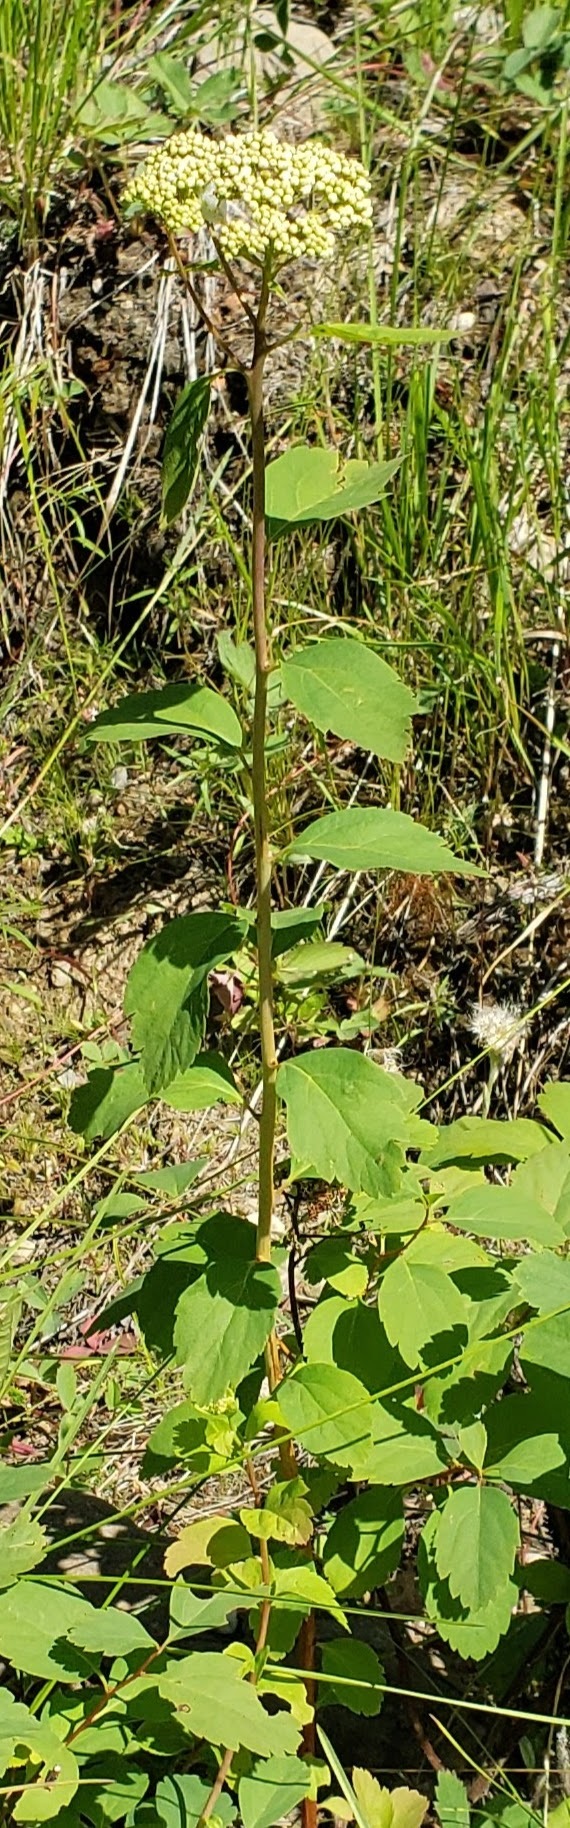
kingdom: Plantae
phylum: Tracheophyta
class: Magnoliopsida
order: Rosales
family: Rosaceae
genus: Spiraea
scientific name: Spiraea lucida
